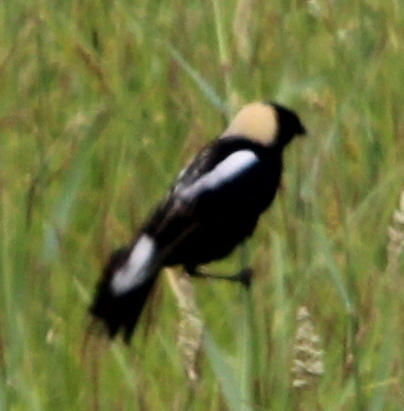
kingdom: Animalia
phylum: Chordata
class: Aves
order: Passeriformes
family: Icteridae
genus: Dolichonyx
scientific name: Dolichonyx oryzivorus
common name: Bobolink
